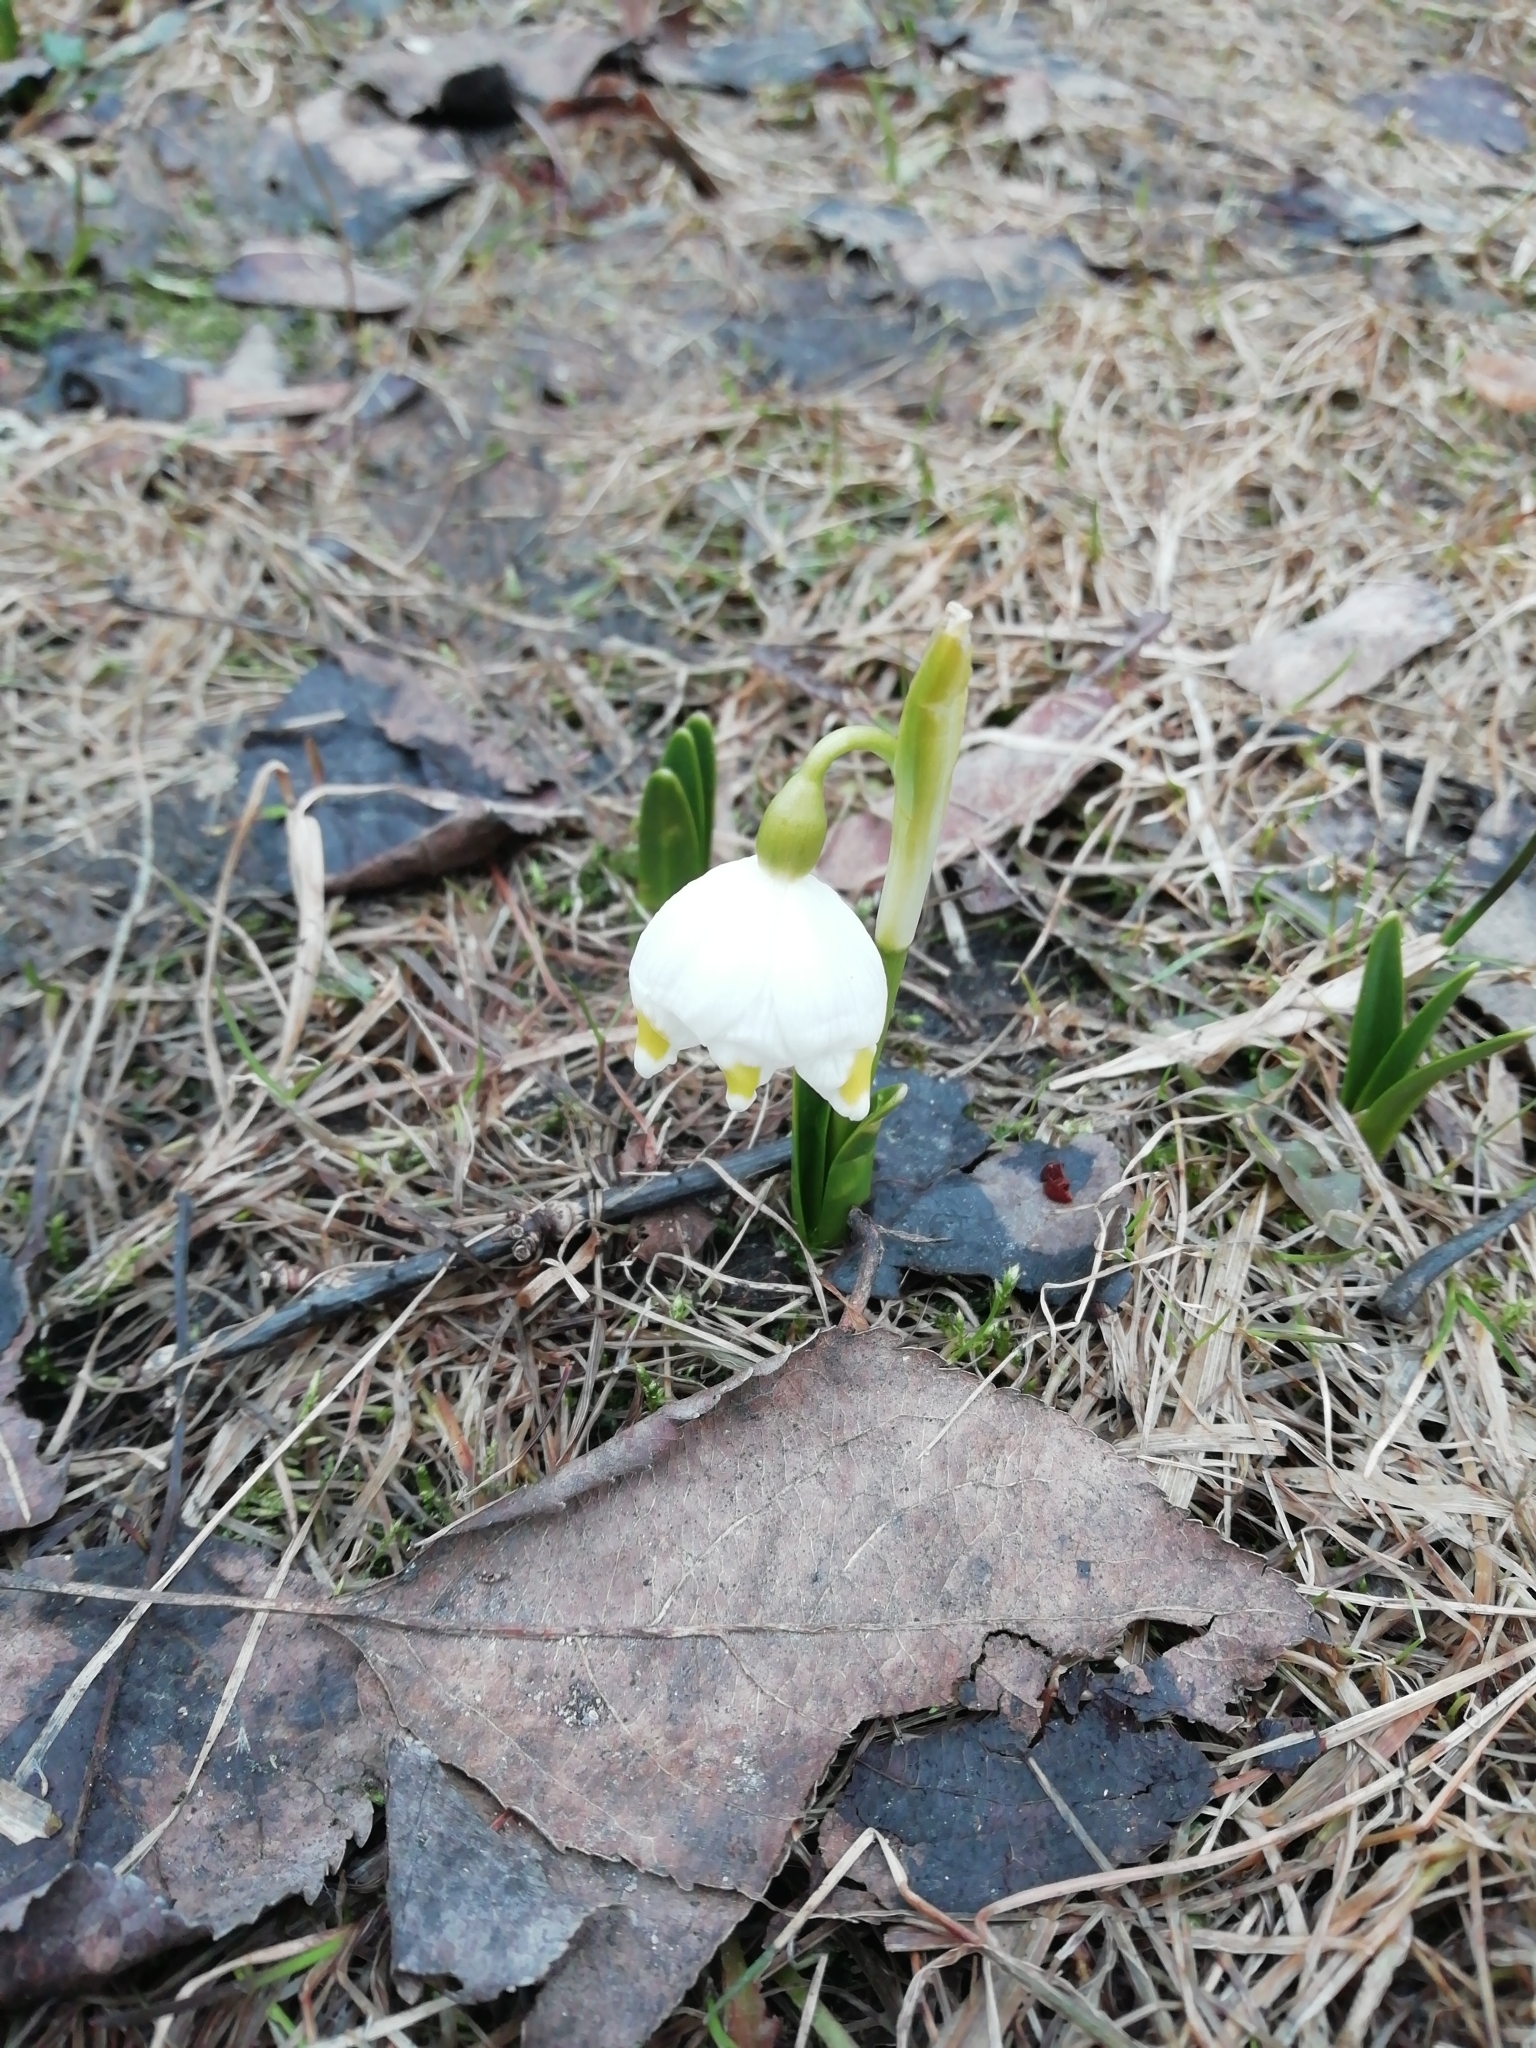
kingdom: Plantae
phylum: Tracheophyta
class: Liliopsida
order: Asparagales
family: Amaryllidaceae
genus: Leucojum
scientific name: Leucojum vernum
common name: Spring snowflake
